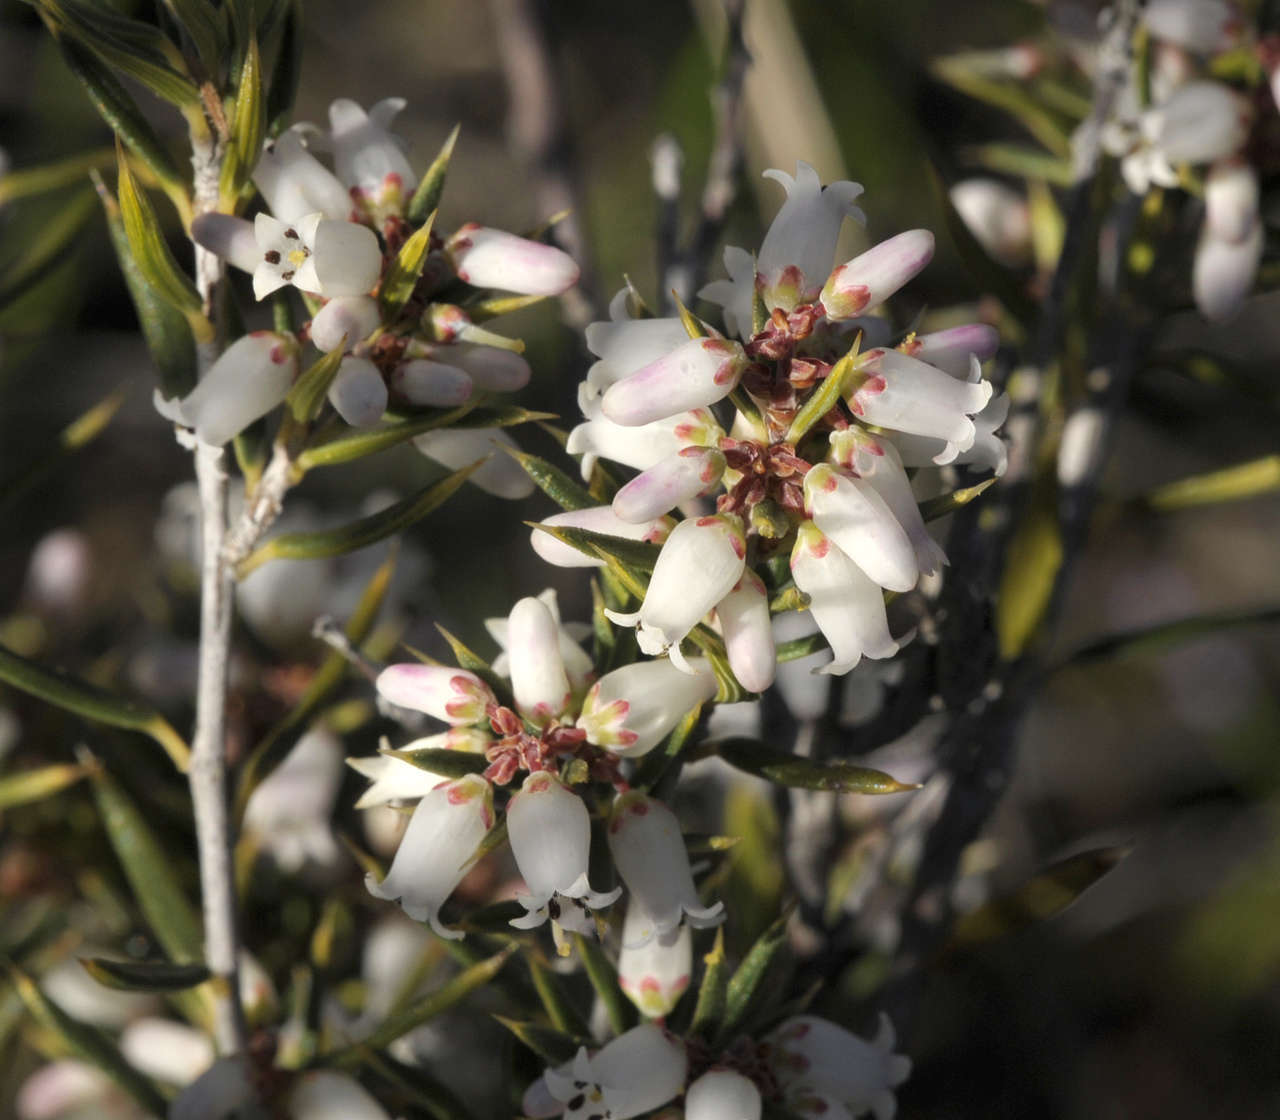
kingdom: Plantae
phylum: Tracheophyta
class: Magnoliopsida
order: Ericales
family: Ericaceae
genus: Lissanthe
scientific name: Lissanthe strigosa
